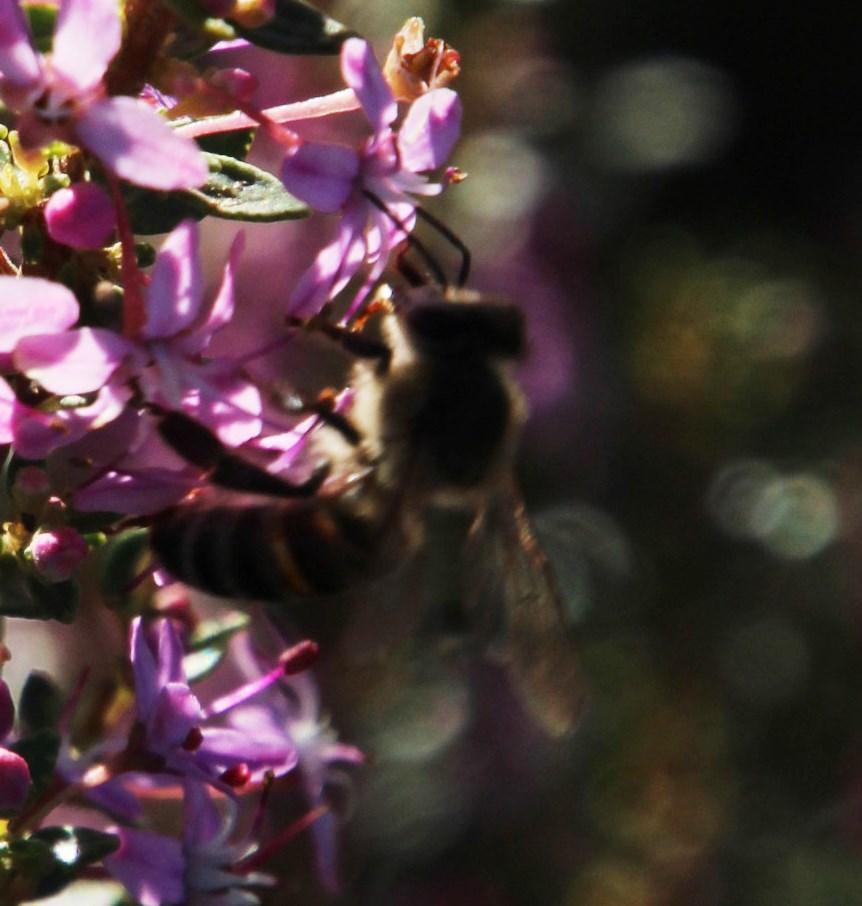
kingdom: Animalia
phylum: Arthropoda
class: Insecta
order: Hymenoptera
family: Apidae
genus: Apis
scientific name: Apis mellifera
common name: Honey bee
